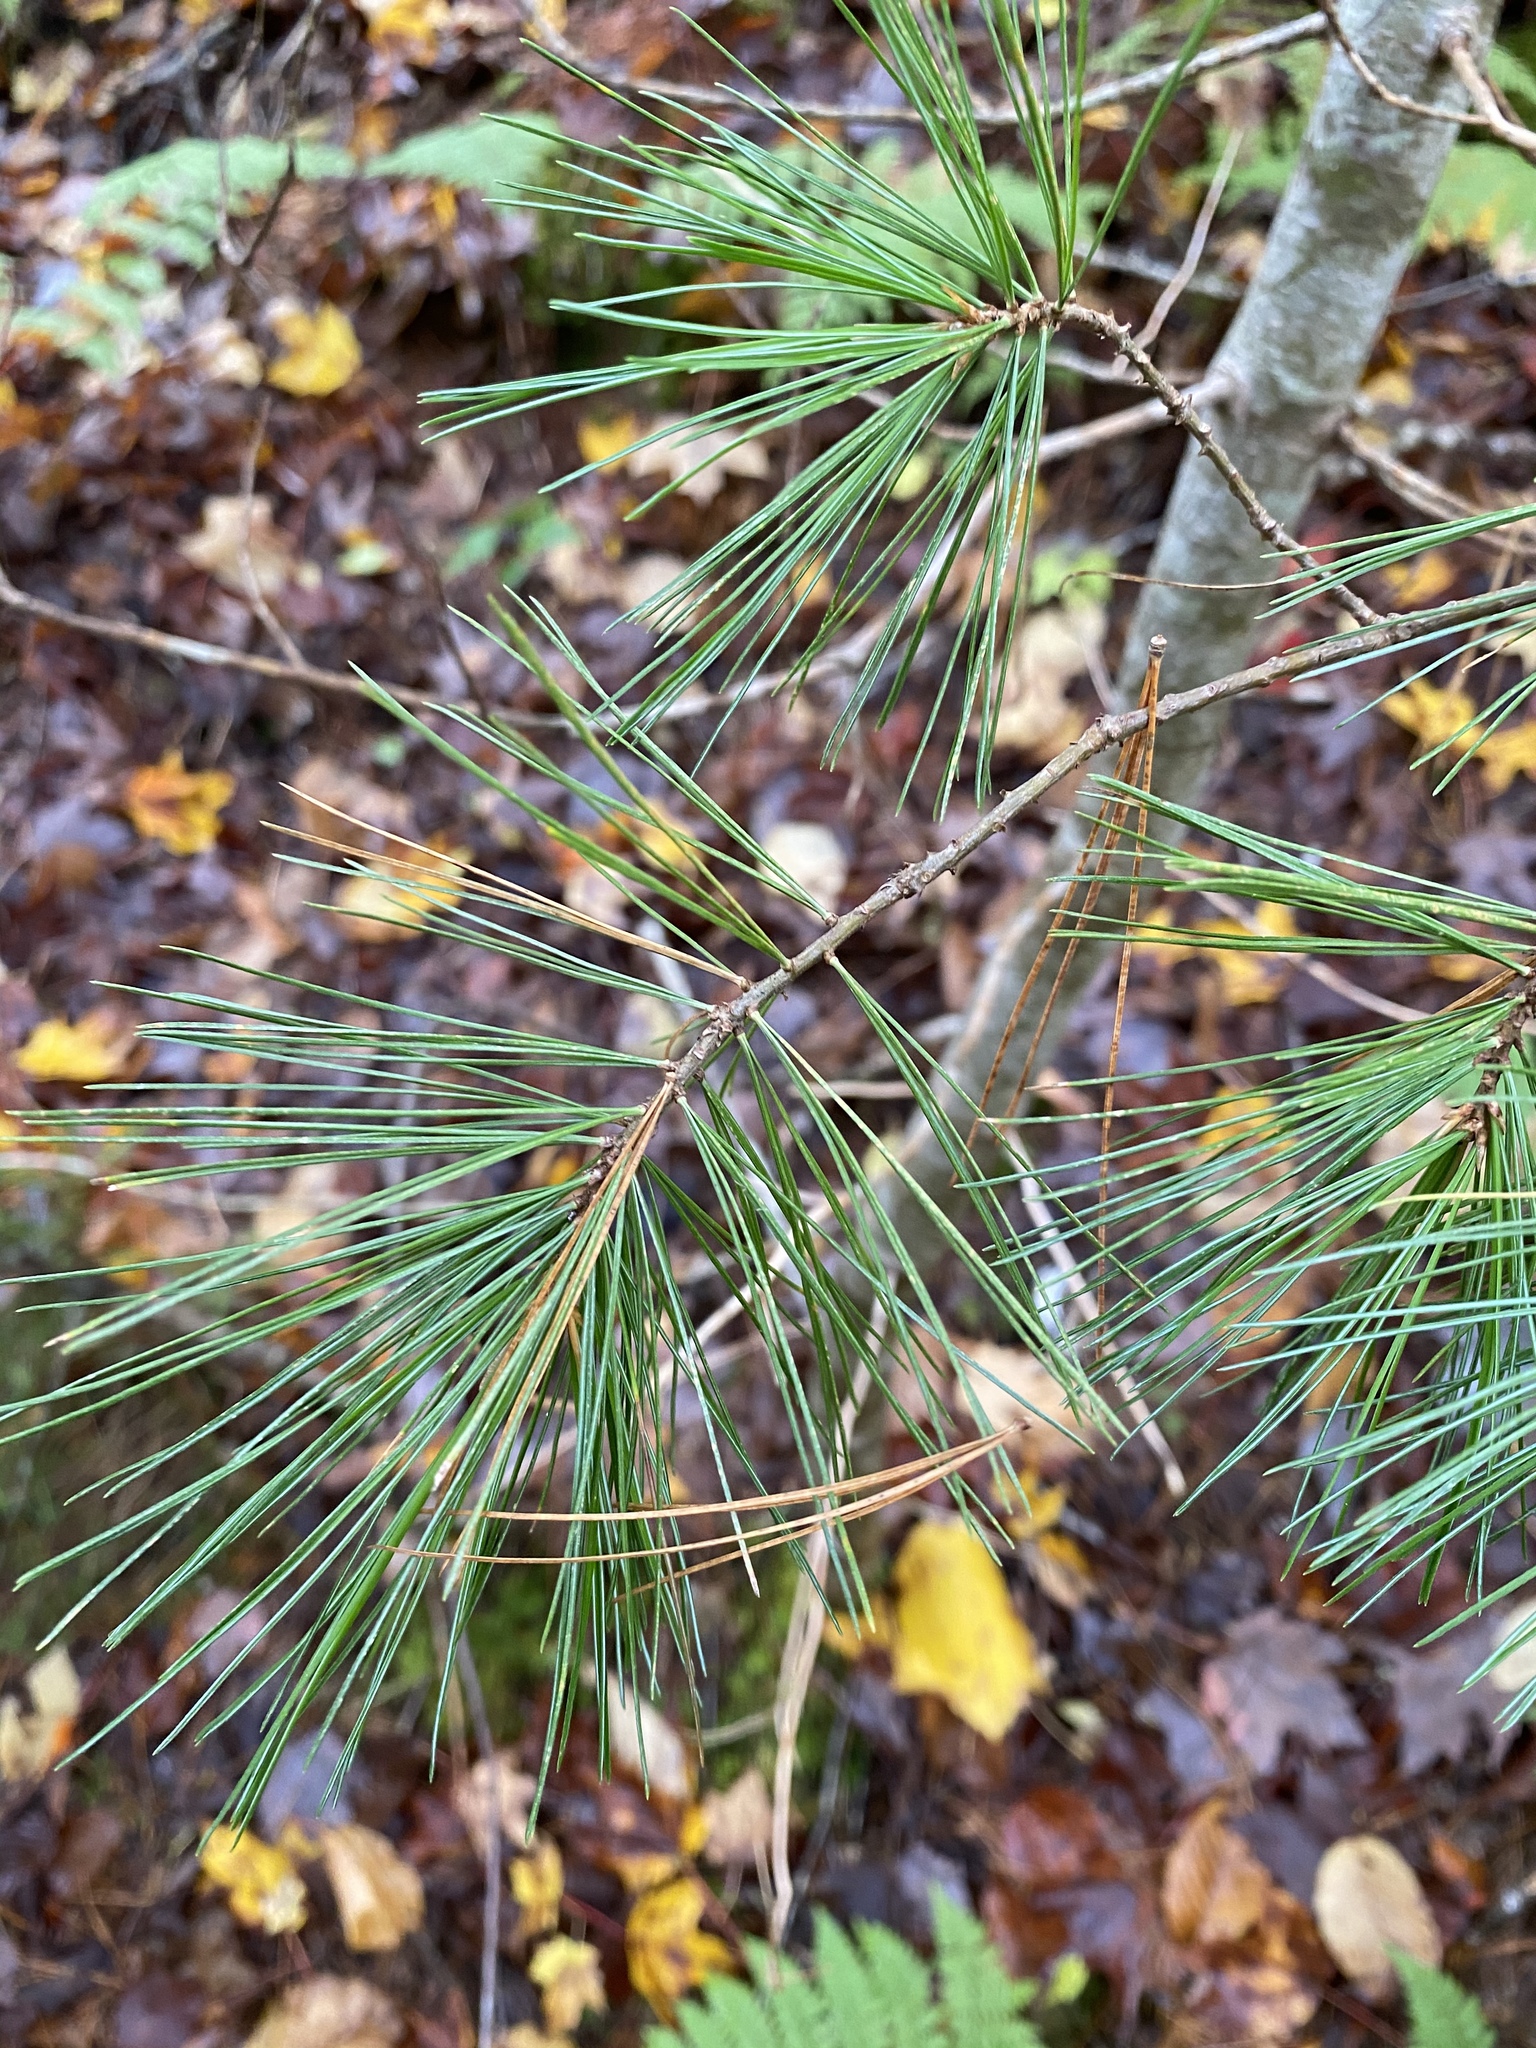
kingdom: Plantae
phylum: Tracheophyta
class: Pinopsida
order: Pinales
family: Pinaceae
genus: Pinus
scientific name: Pinus strobus
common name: Weymouth pine
